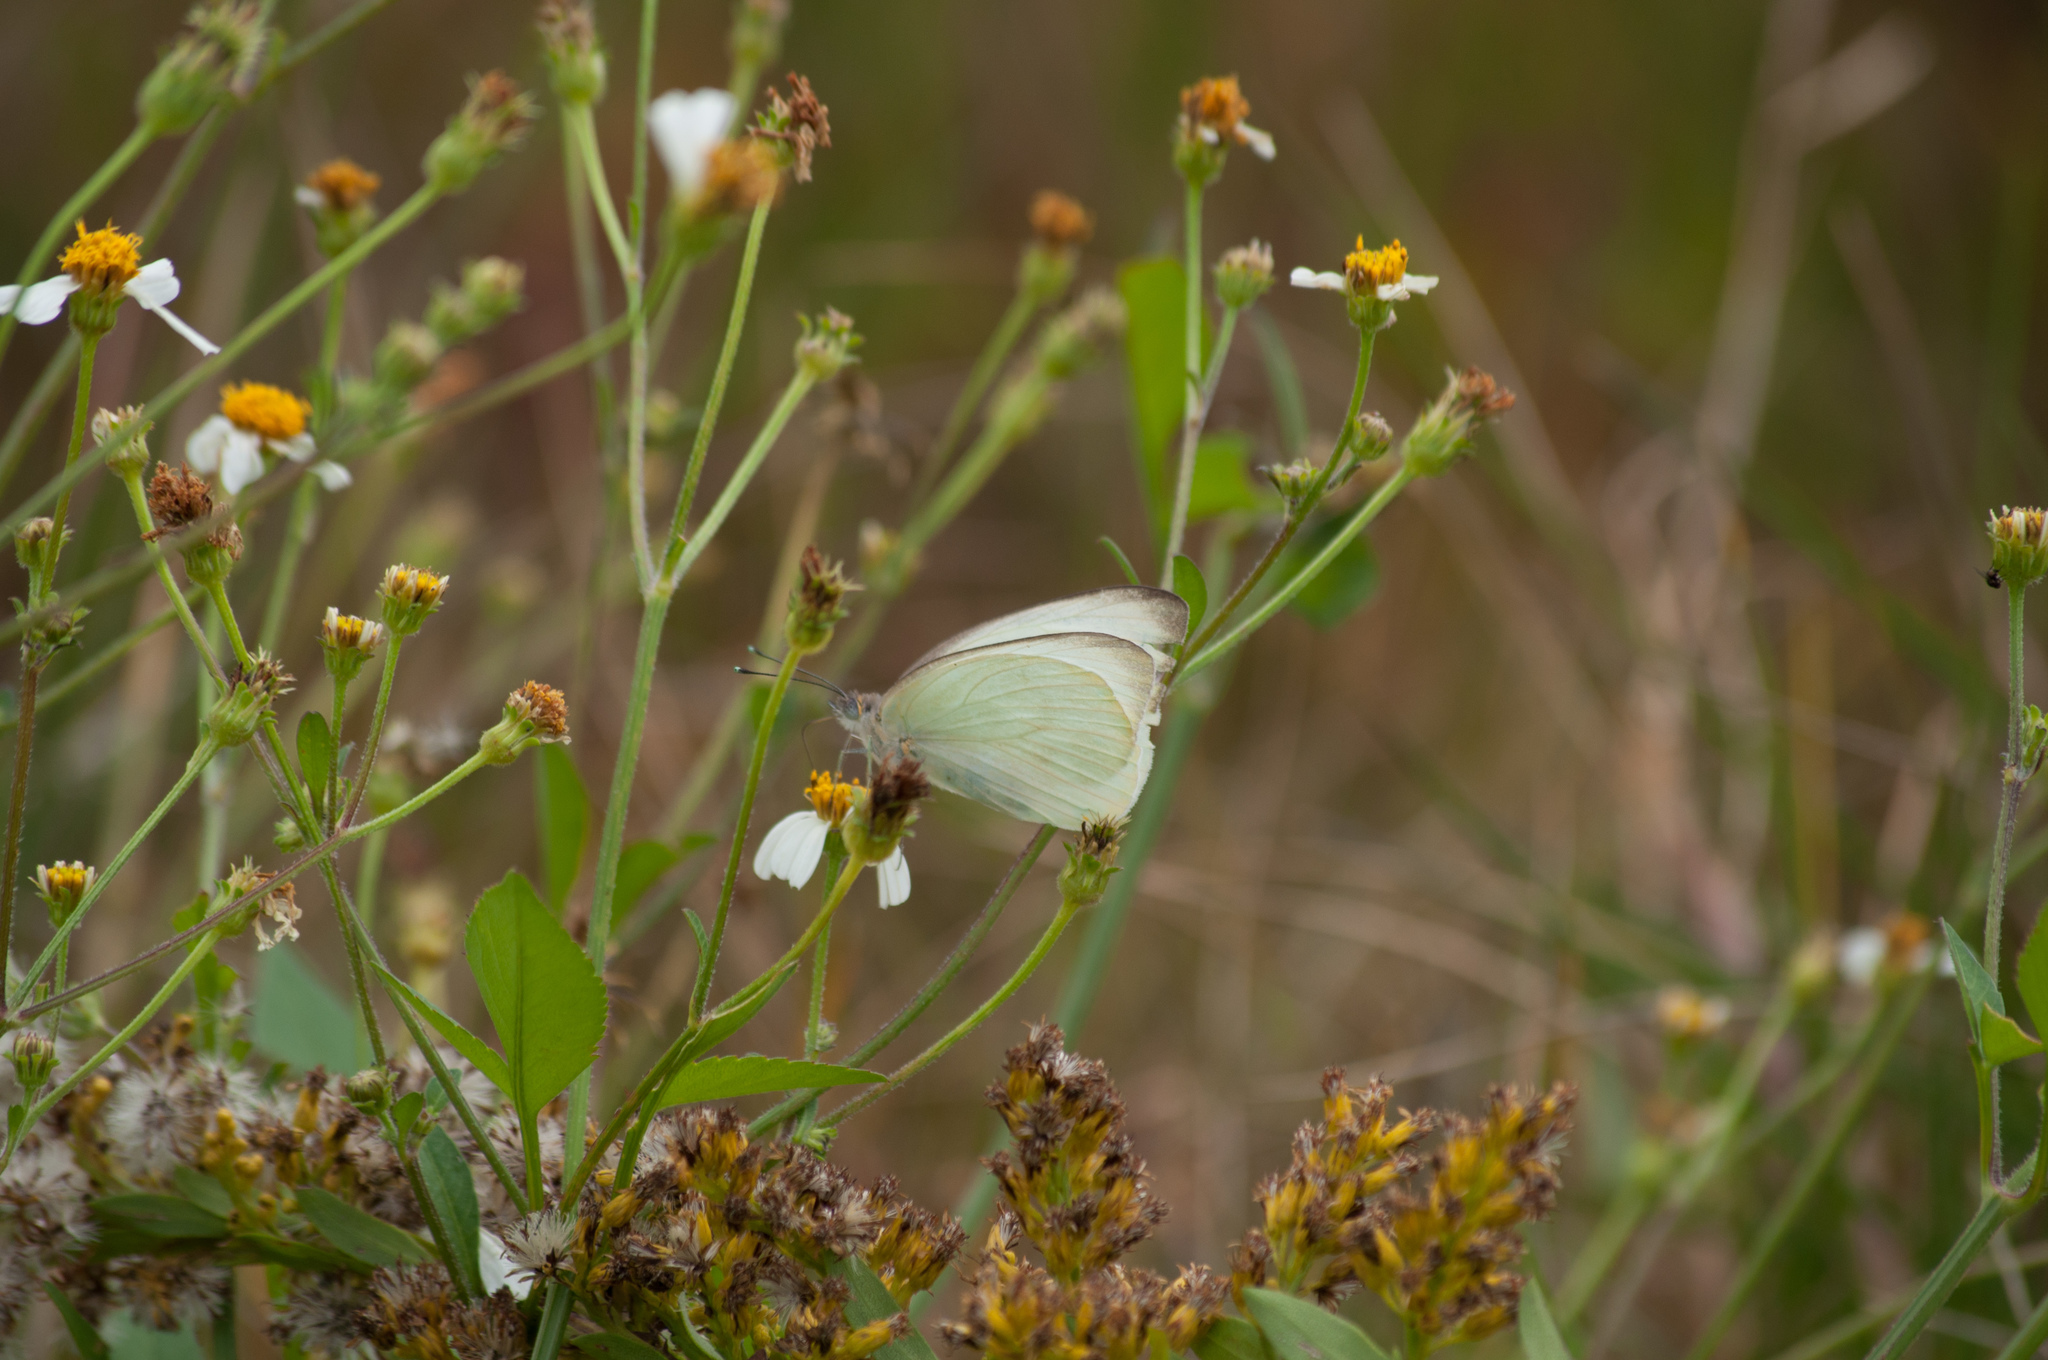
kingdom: Animalia
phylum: Arthropoda
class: Insecta
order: Lepidoptera
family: Pieridae
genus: Ascia
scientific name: Ascia monuste
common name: Great southern white
